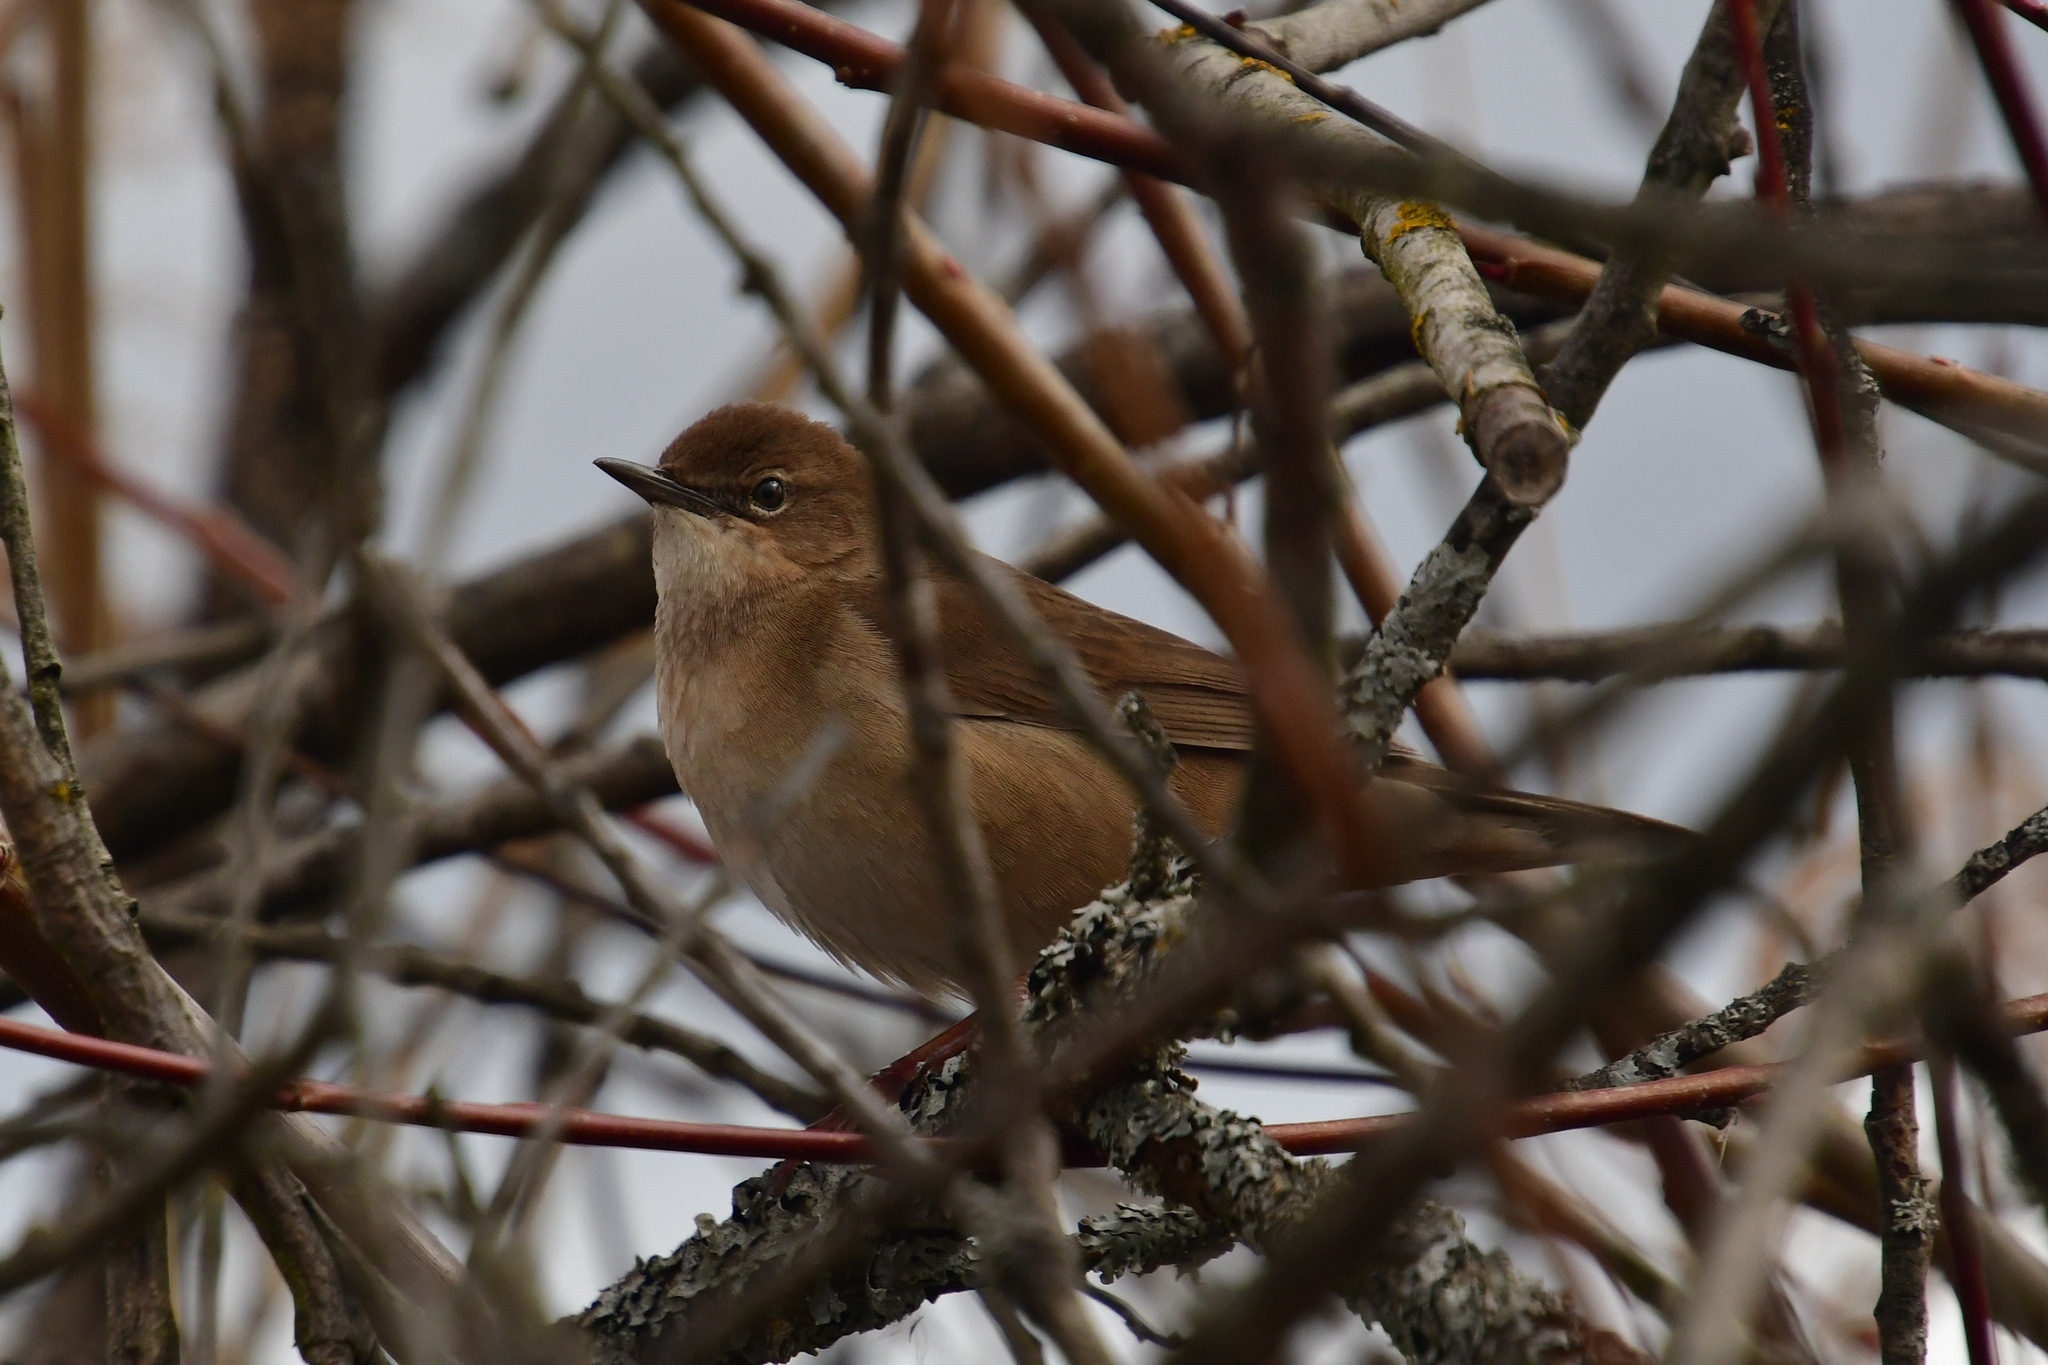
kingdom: Animalia
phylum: Chordata
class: Aves
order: Passeriformes
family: Locustellidae
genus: Locustella
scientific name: Locustella luscinioides
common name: Savi's warbler
